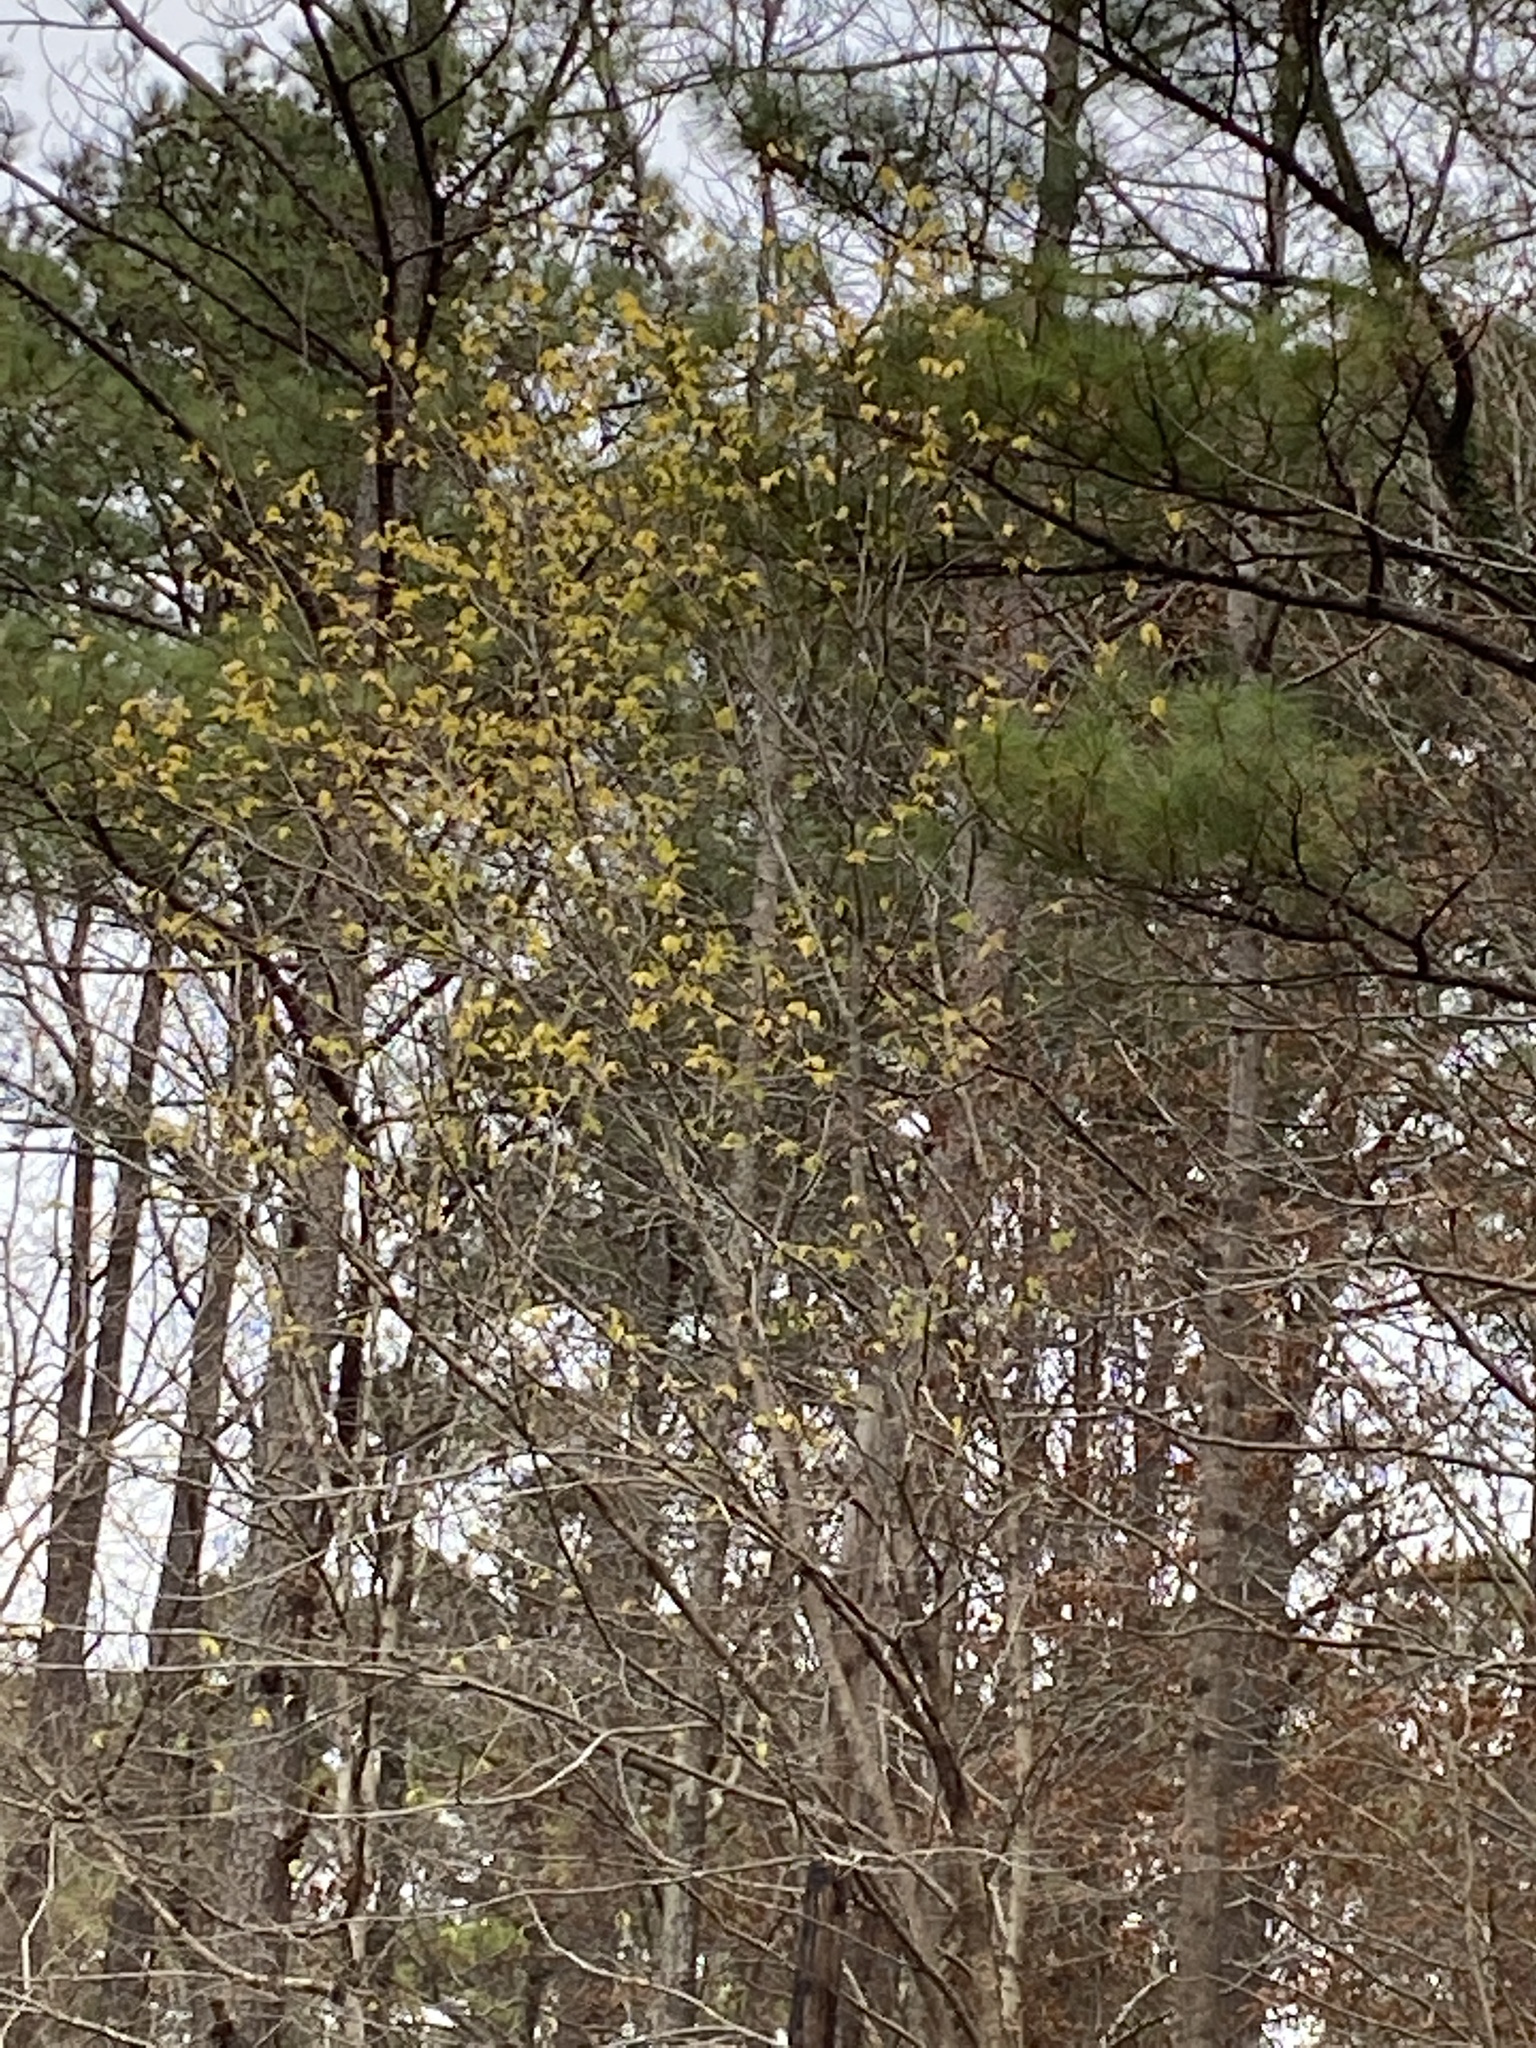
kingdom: Plantae
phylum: Tracheophyta
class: Magnoliopsida
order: Rosales
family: Ulmaceae
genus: Ulmus
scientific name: Ulmus rubra
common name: Slippery elm
